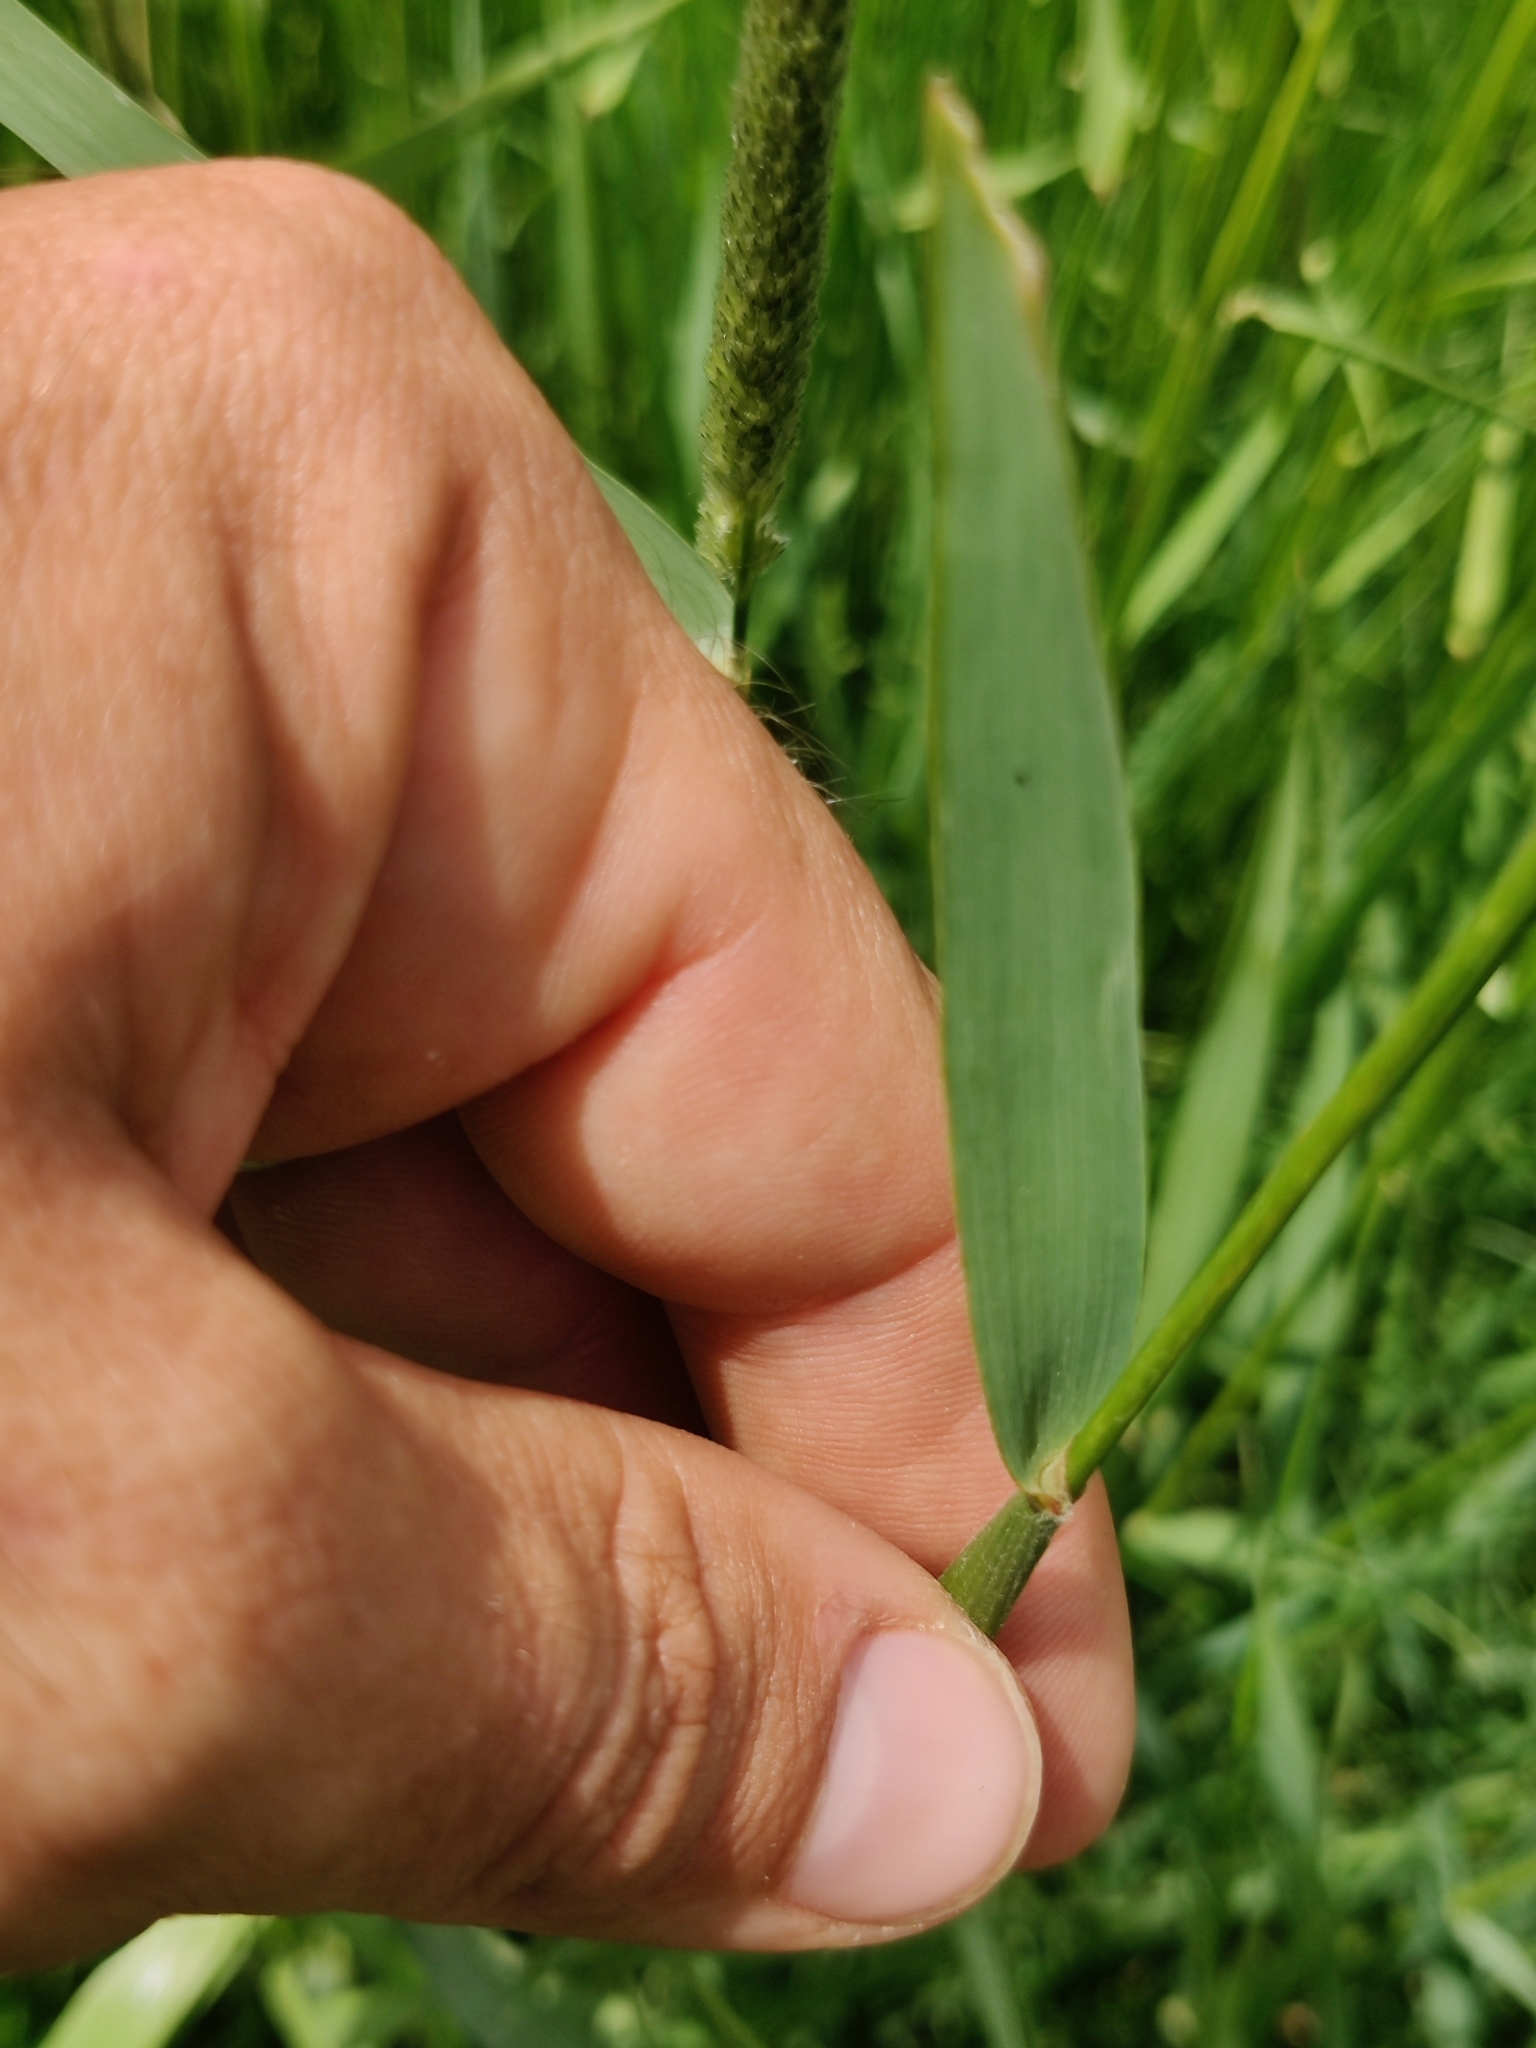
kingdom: Plantae
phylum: Tracheophyta
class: Liliopsida
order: Poales
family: Poaceae
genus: Alopecurus
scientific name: Alopecurus pratensis
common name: Meadow foxtail
